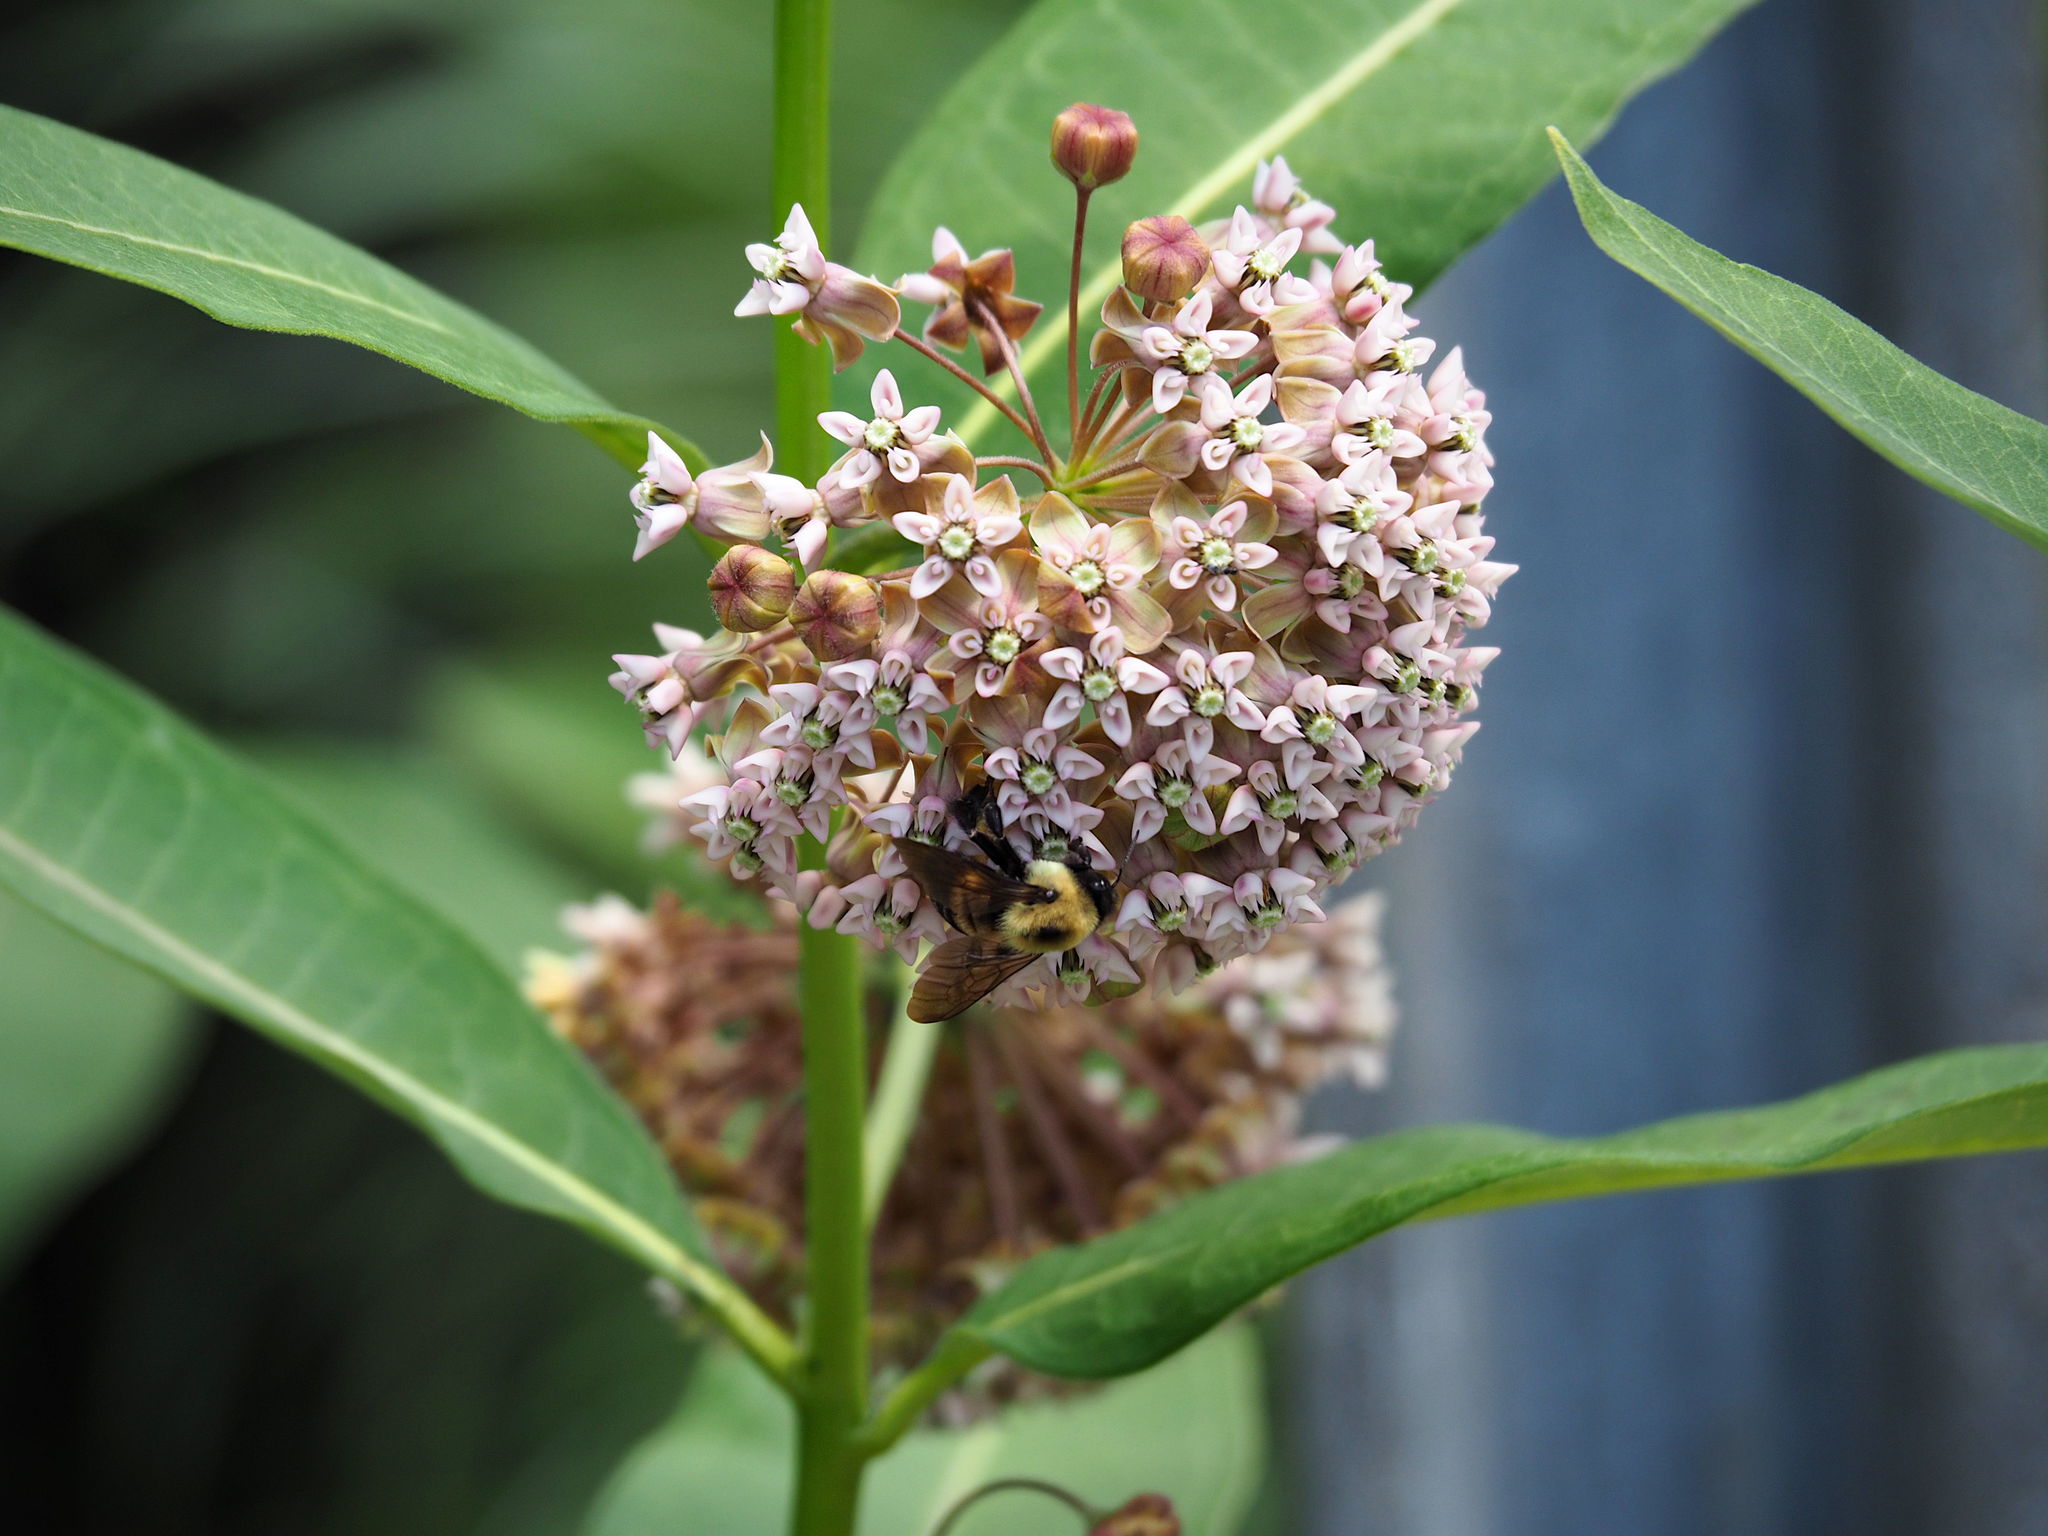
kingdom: Animalia
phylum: Arthropoda
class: Insecta
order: Hymenoptera
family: Apidae
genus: Bombus
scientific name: Bombus griseocollis
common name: Brown-belted bumble bee
